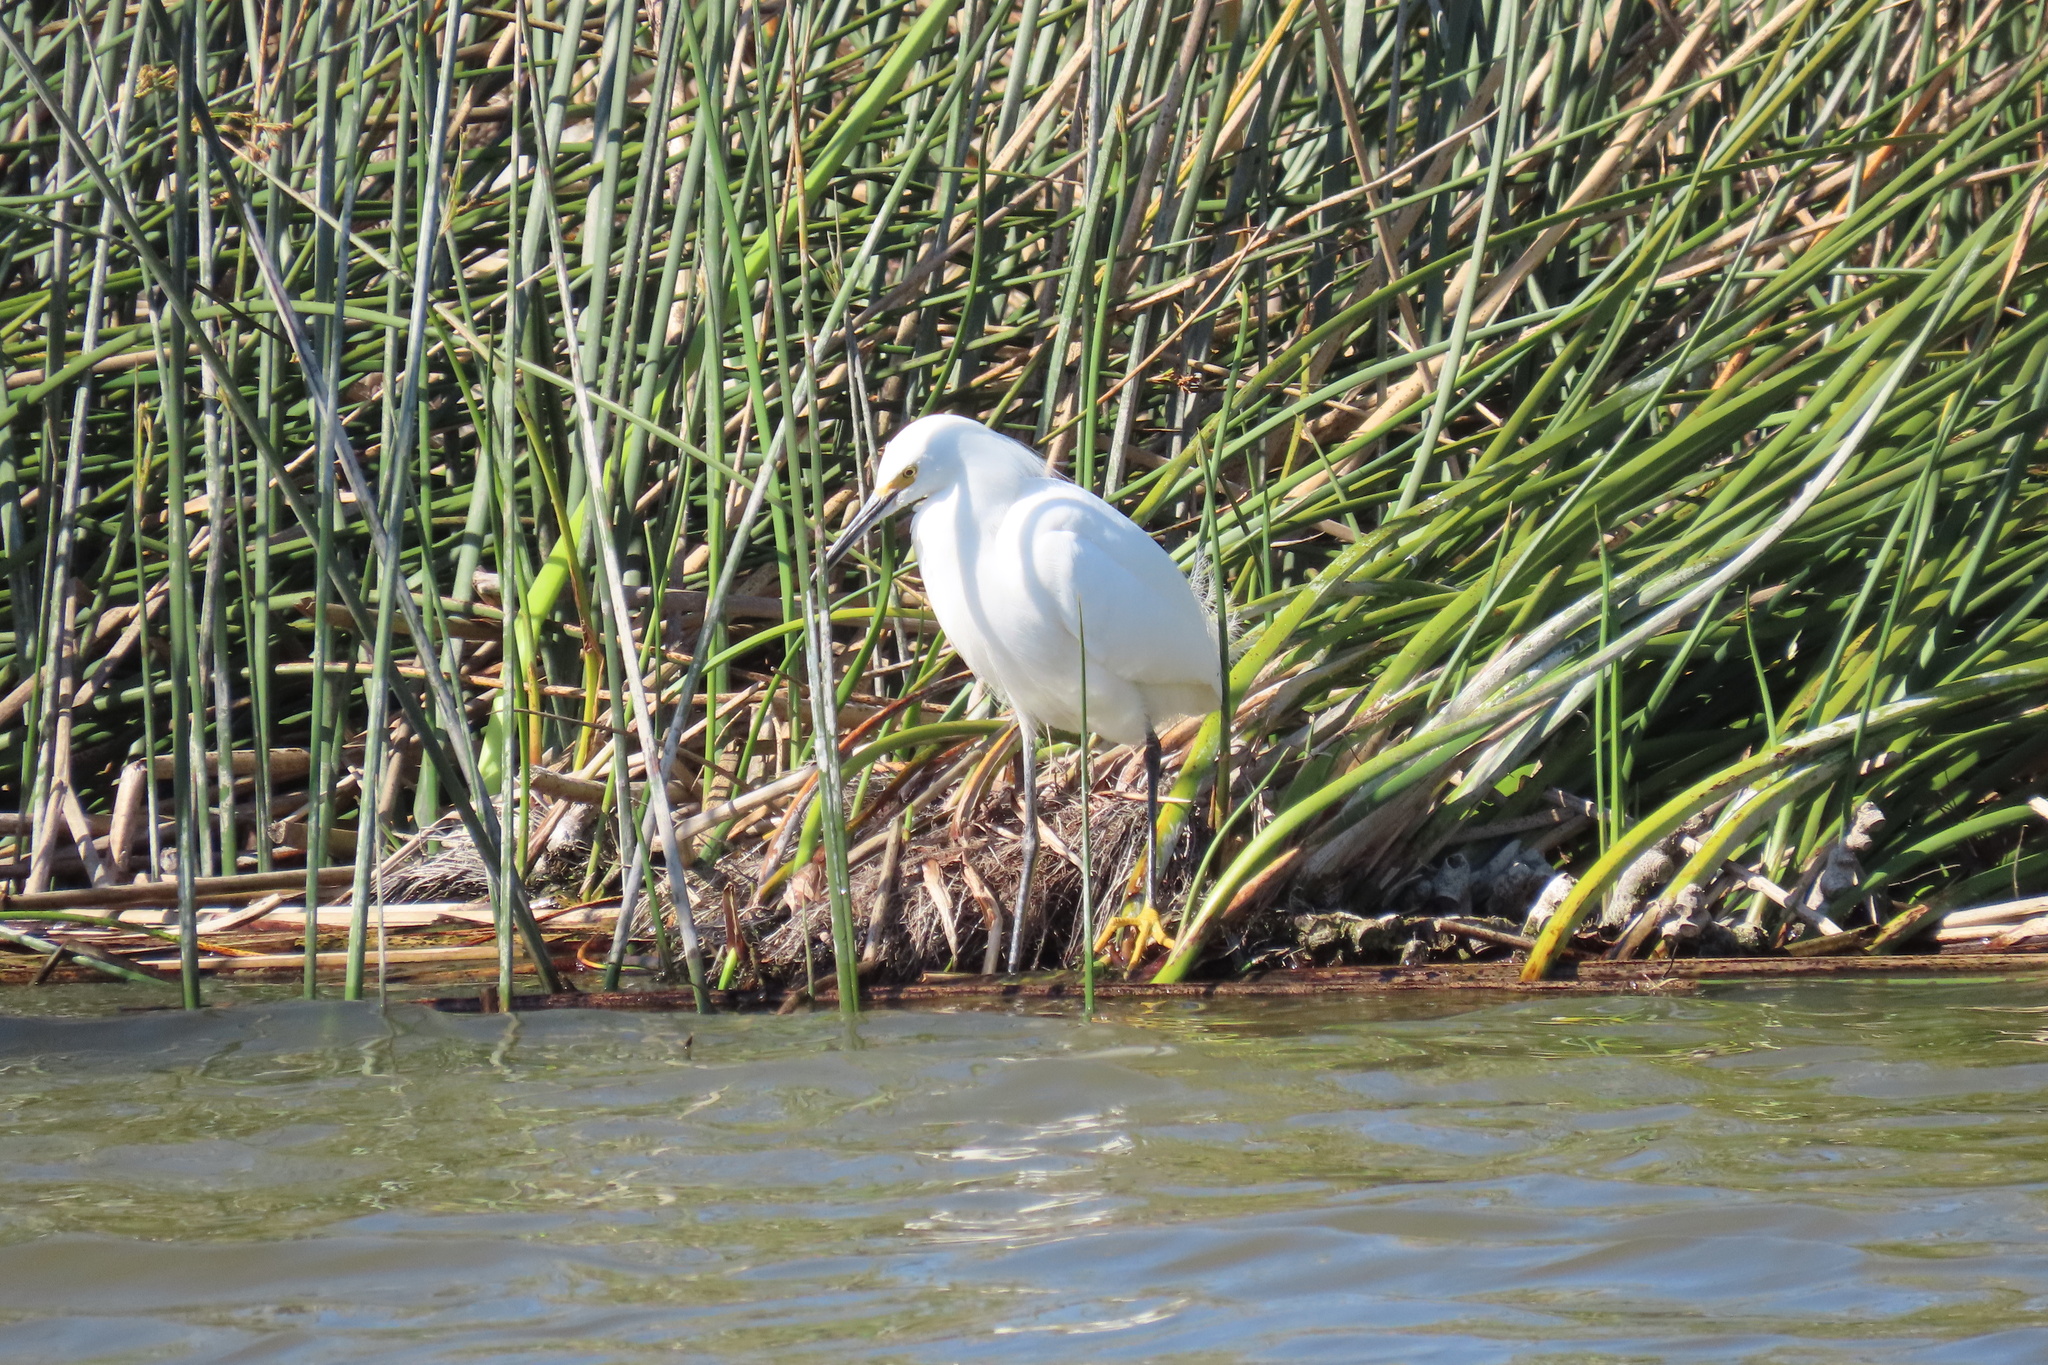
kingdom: Animalia
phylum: Chordata
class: Aves
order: Pelecaniformes
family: Ardeidae
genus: Egretta
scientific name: Egretta thula
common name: Snowy egret
